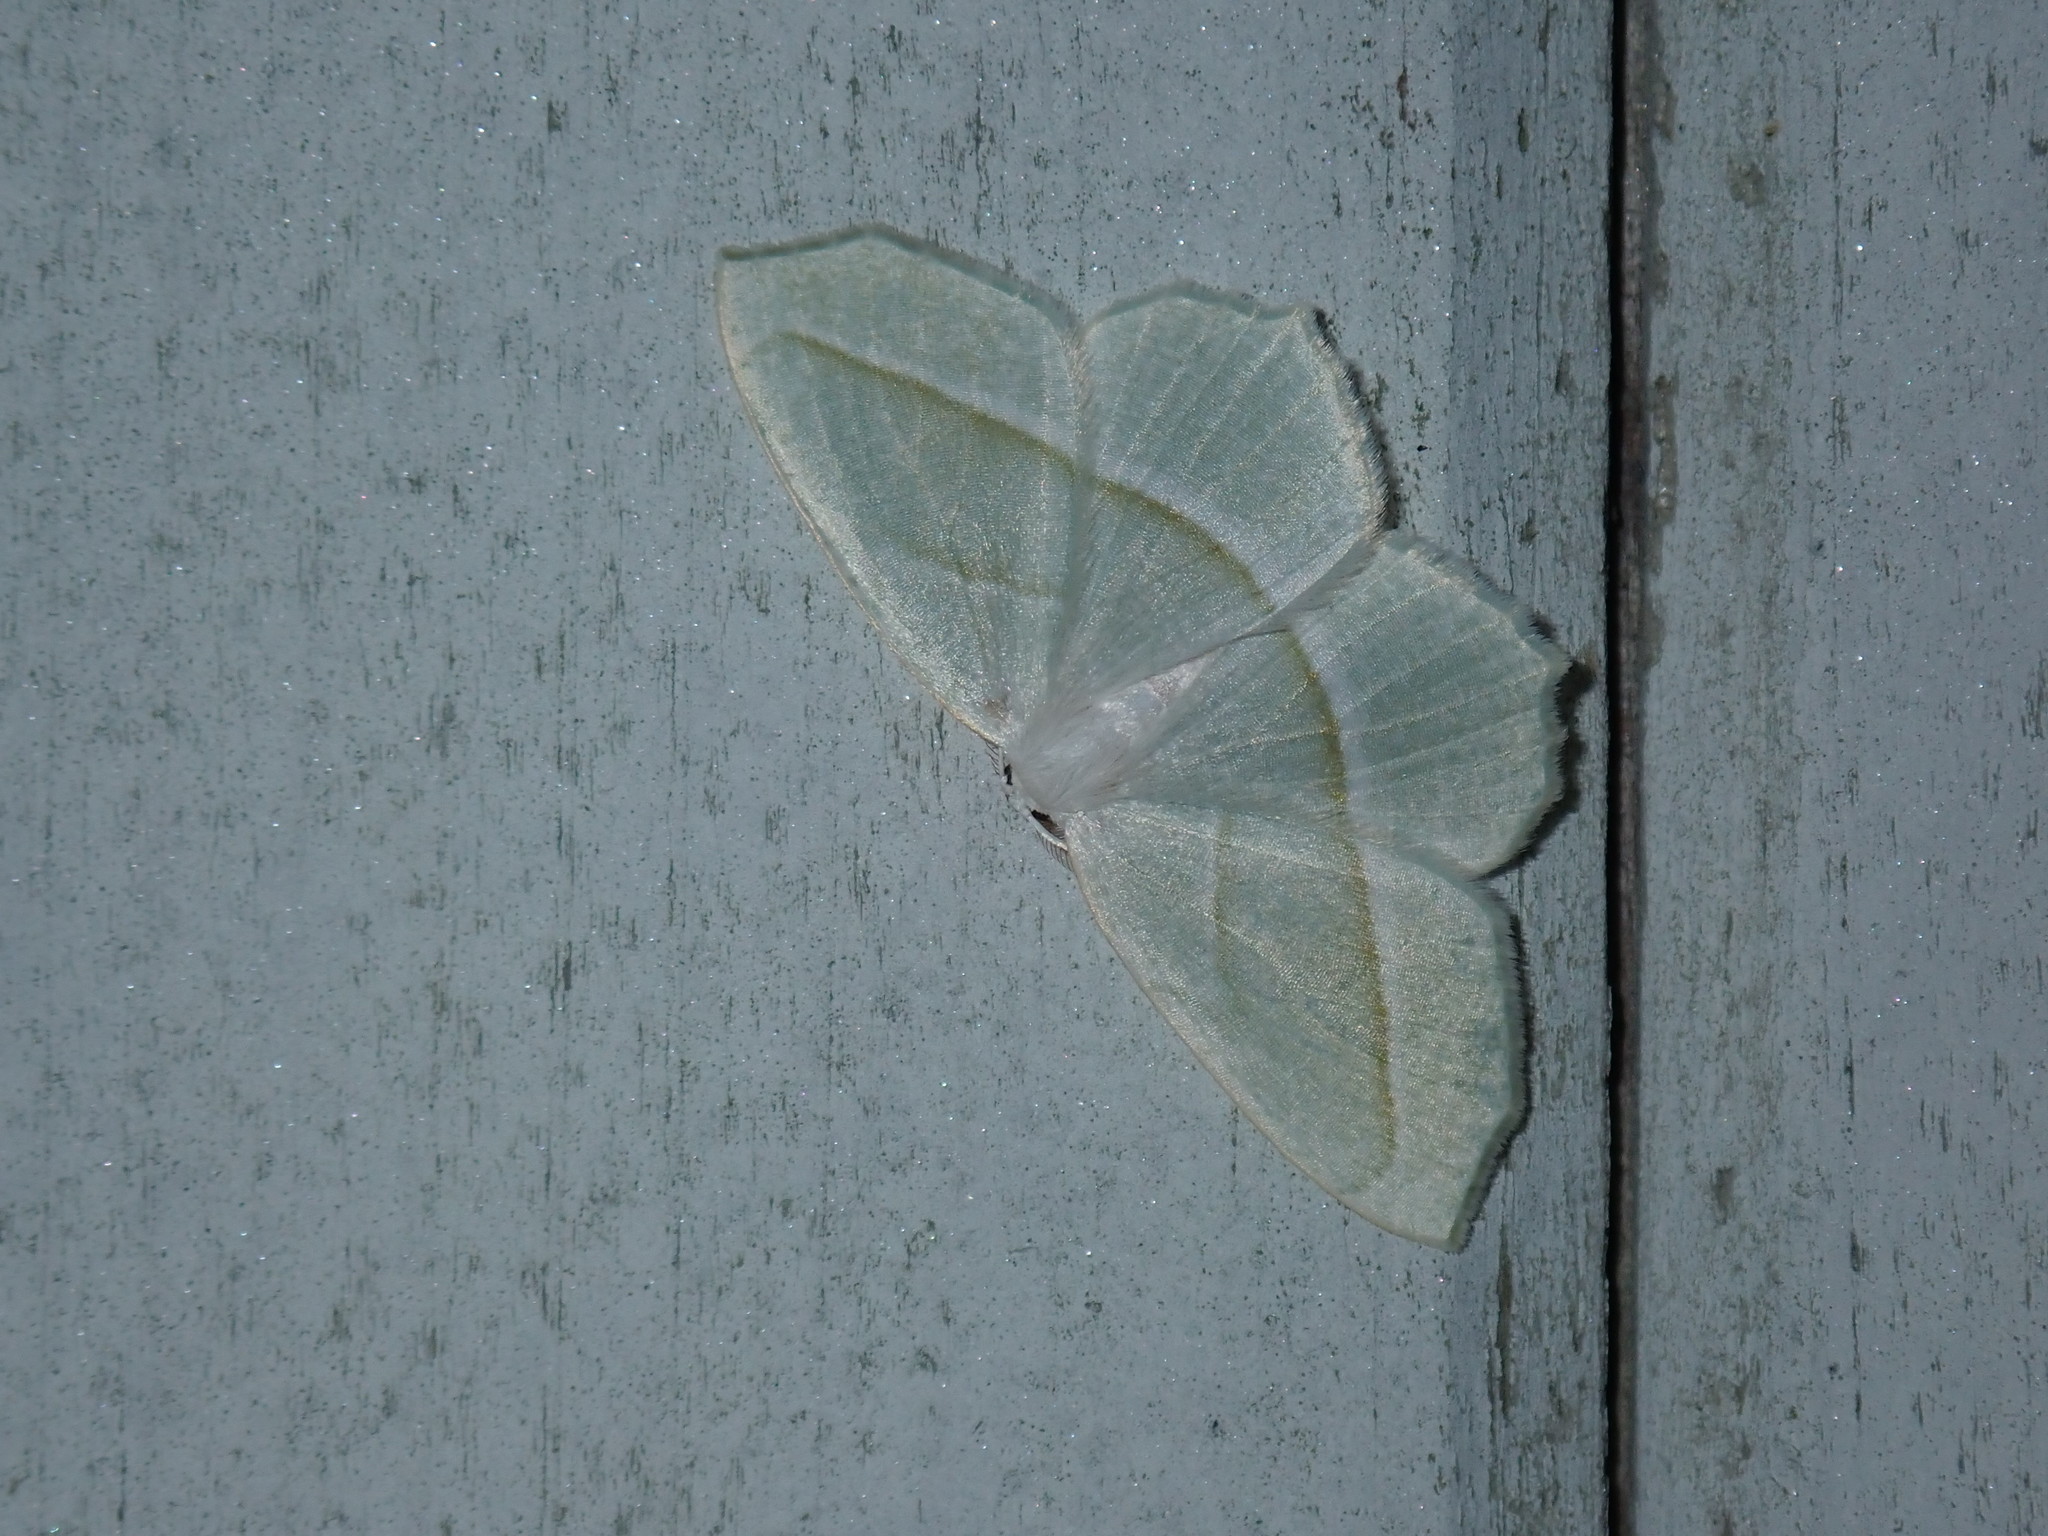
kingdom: Animalia
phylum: Arthropoda
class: Insecta
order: Lepidoptera
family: Geometridae
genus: Campaea
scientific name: Campaea perlata
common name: Fringed looper
